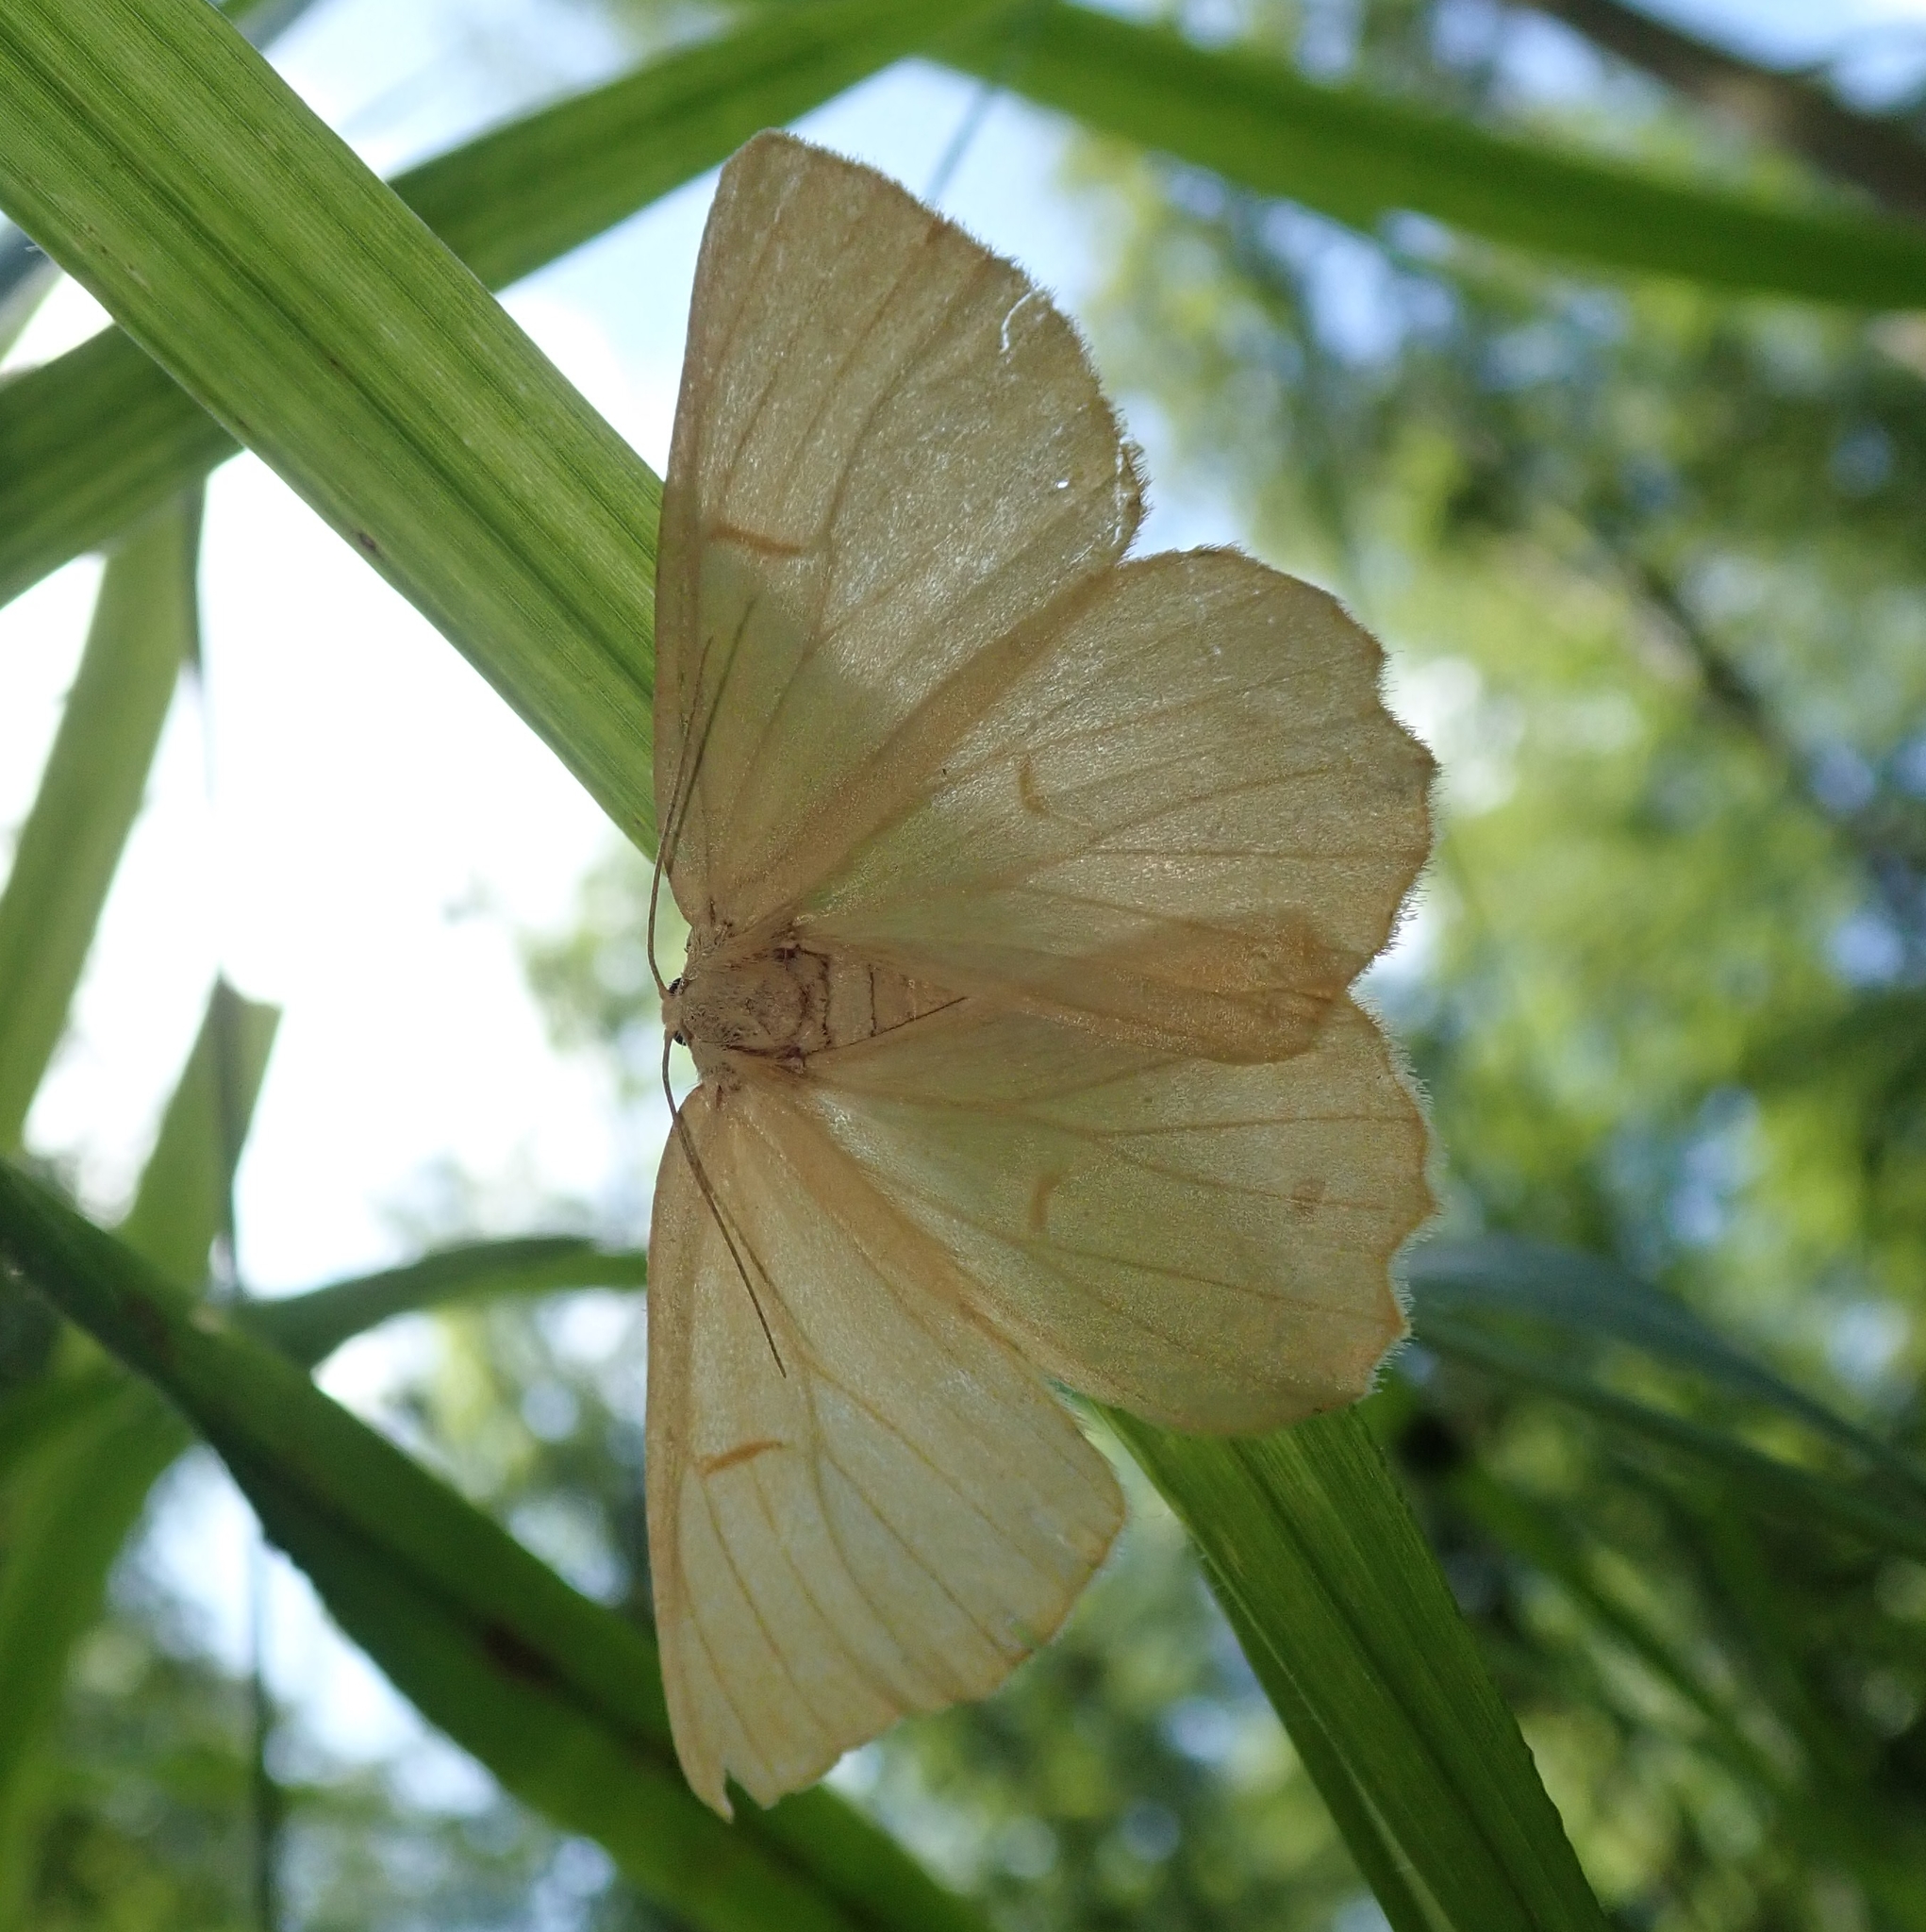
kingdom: Animalia
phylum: Arthropoda
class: Insecta
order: Lepidoptera
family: Geometridae
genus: Angerona
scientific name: Angerona prunaria
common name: Orange moth
